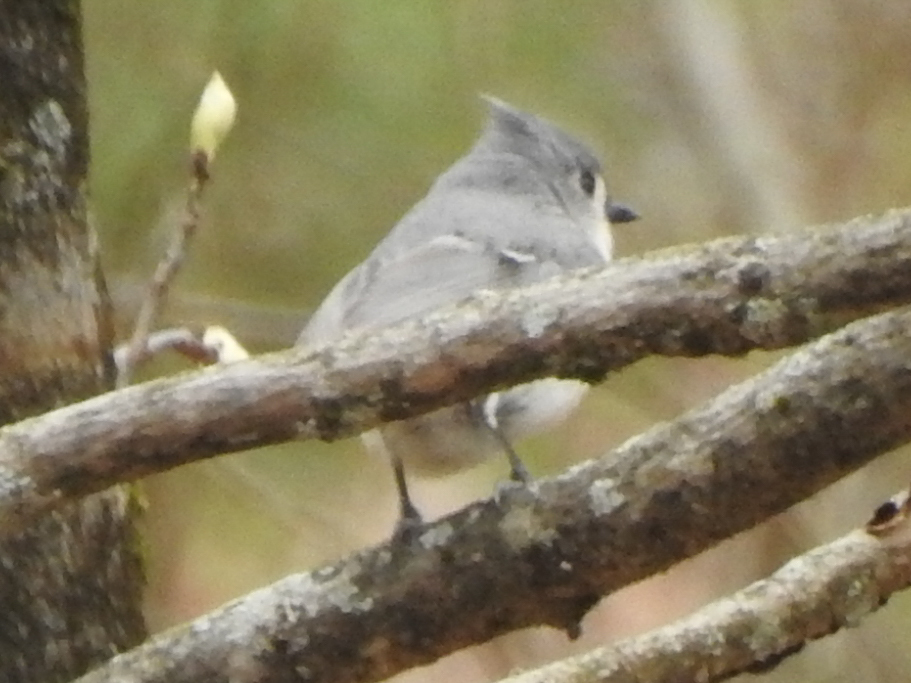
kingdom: Animalia
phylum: Chordata
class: Aves
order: Passeriformes
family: Paridae
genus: Baeolophus
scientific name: Baeolophus bicolor
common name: Tufted titmouse
